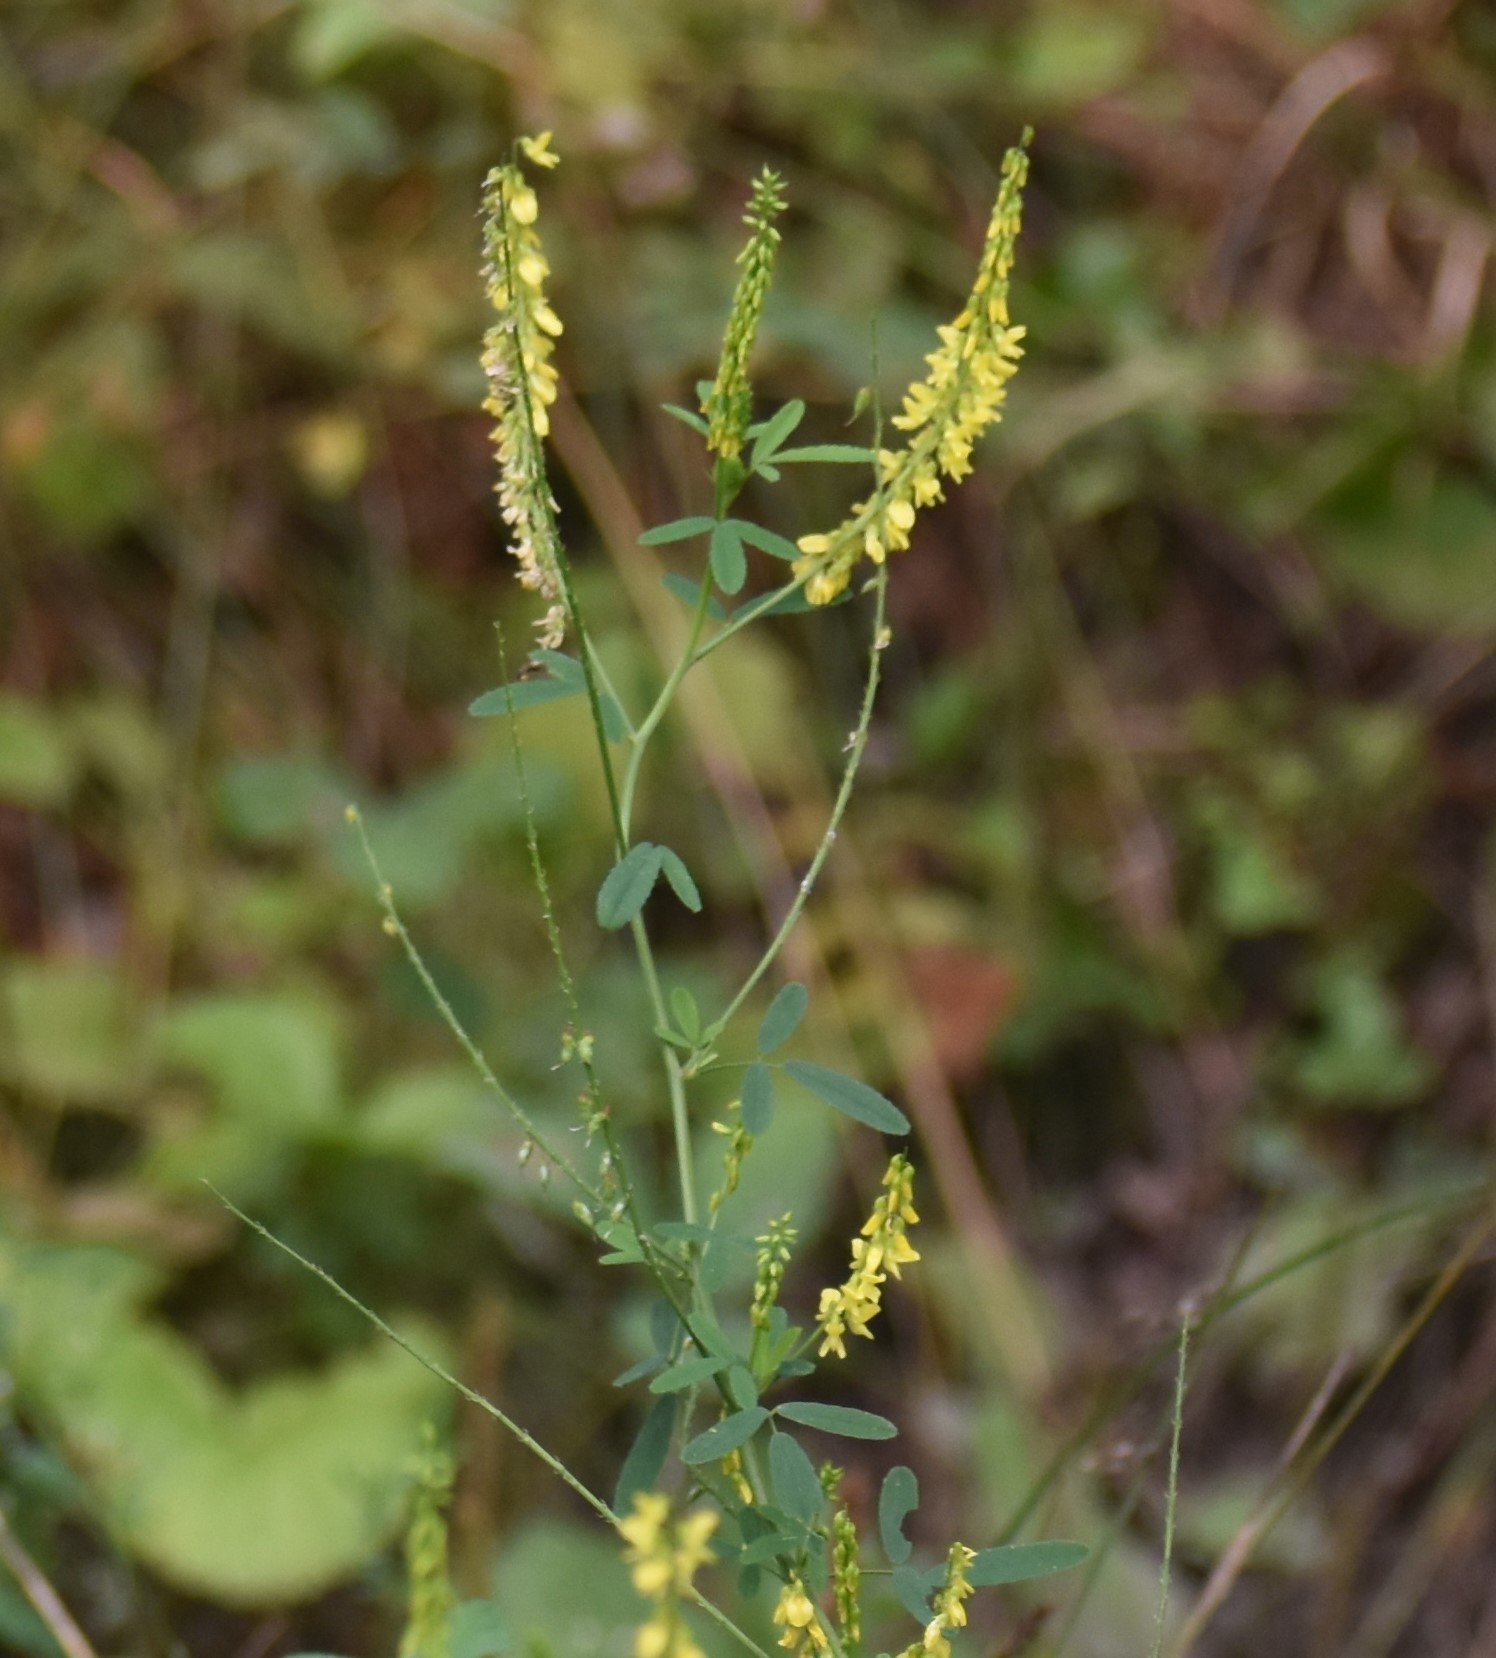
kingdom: Plantae
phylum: Tracheophyta
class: Magnoliopsida
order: Fabales
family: Fabaceae
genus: Melilotus
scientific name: Melilotus officinalis
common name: Sweetclover
